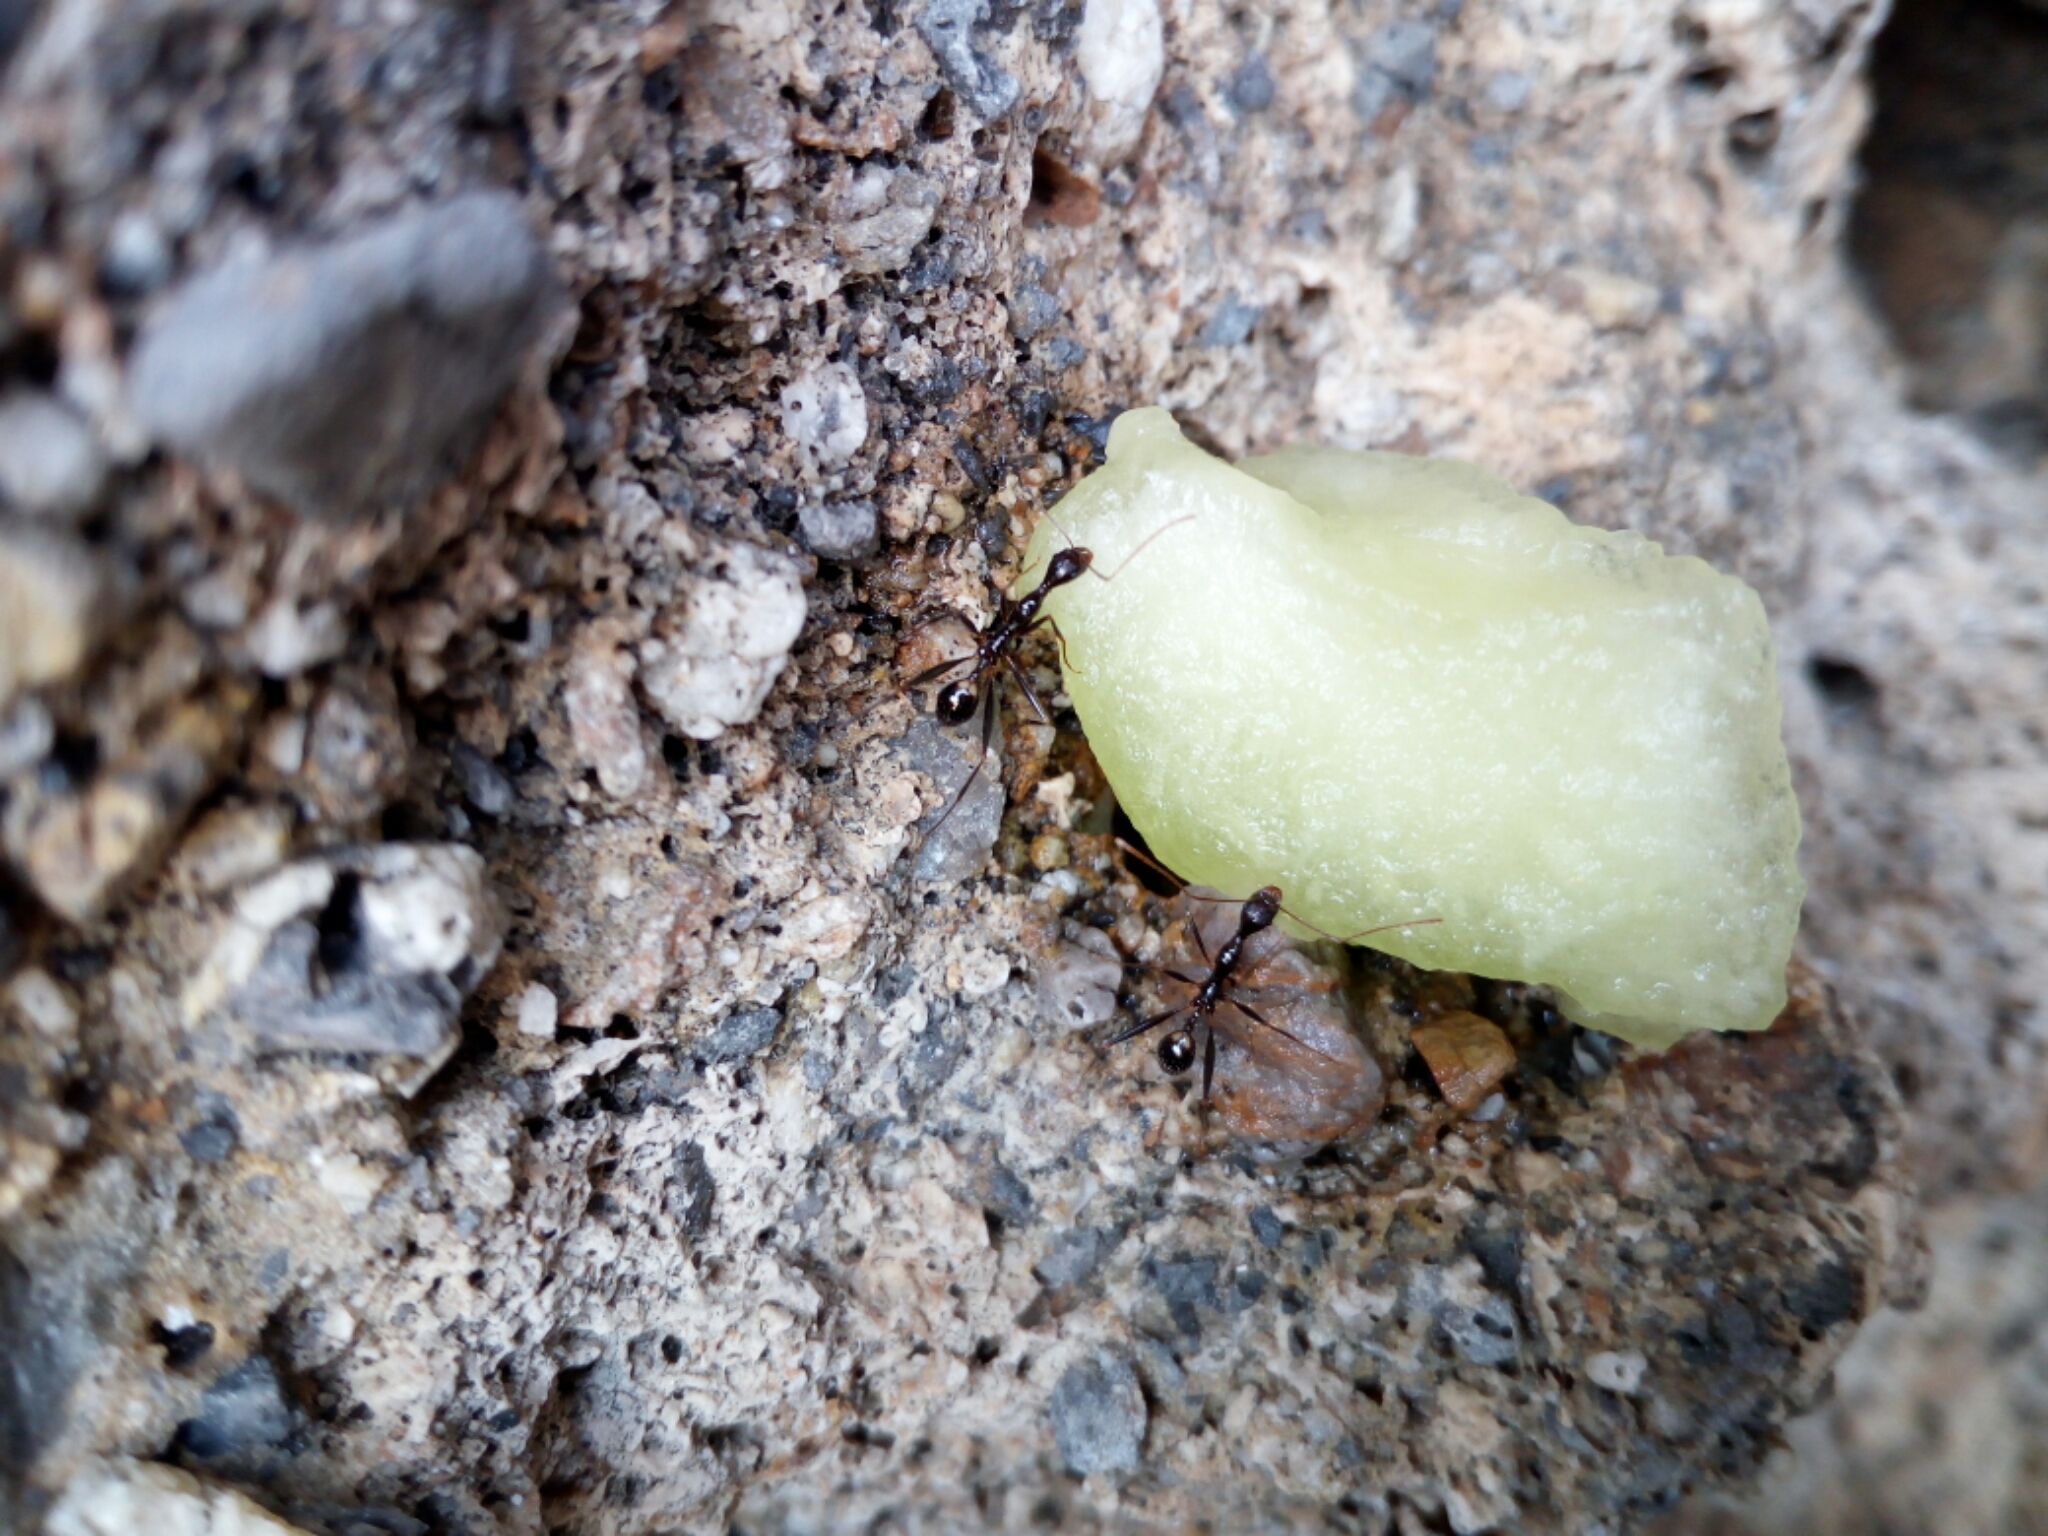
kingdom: Animalia
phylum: Arthropoda
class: Insecta
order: Hymenoptera
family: Formicidae
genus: Aphaenogaster
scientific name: Aphaenogaster cecconii
